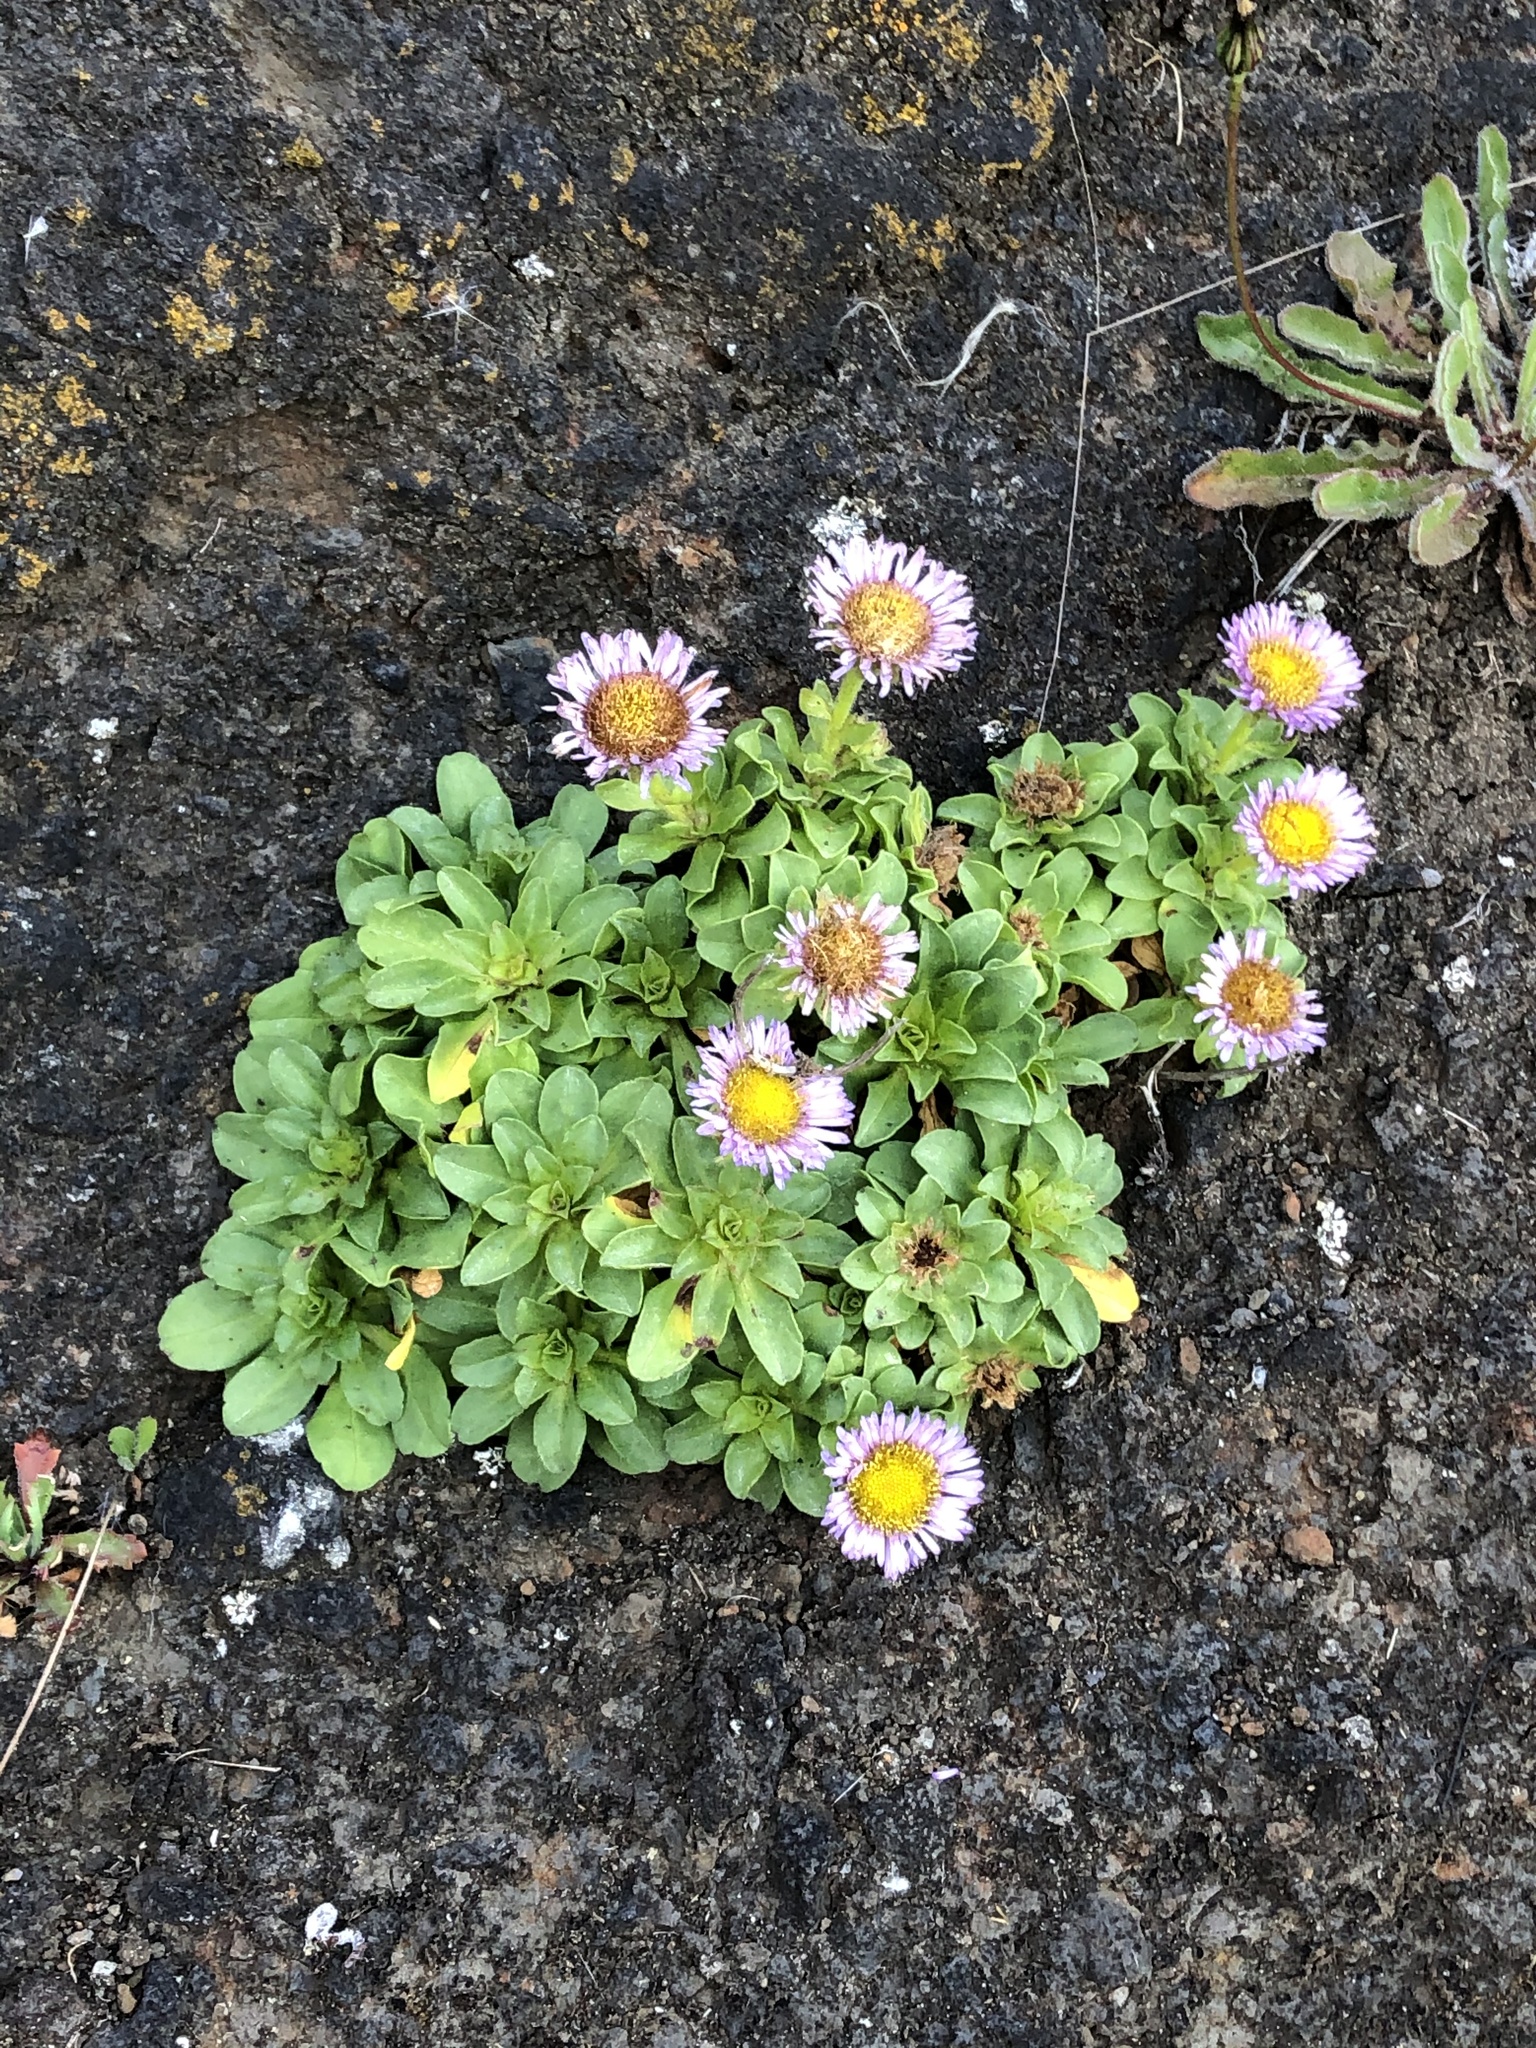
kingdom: Plantae
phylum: Tracheophyta
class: Magnoliopsida
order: Asterales
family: Asteraceae
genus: Erigeron
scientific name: Erigeron glaucus
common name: Seaside daisy
